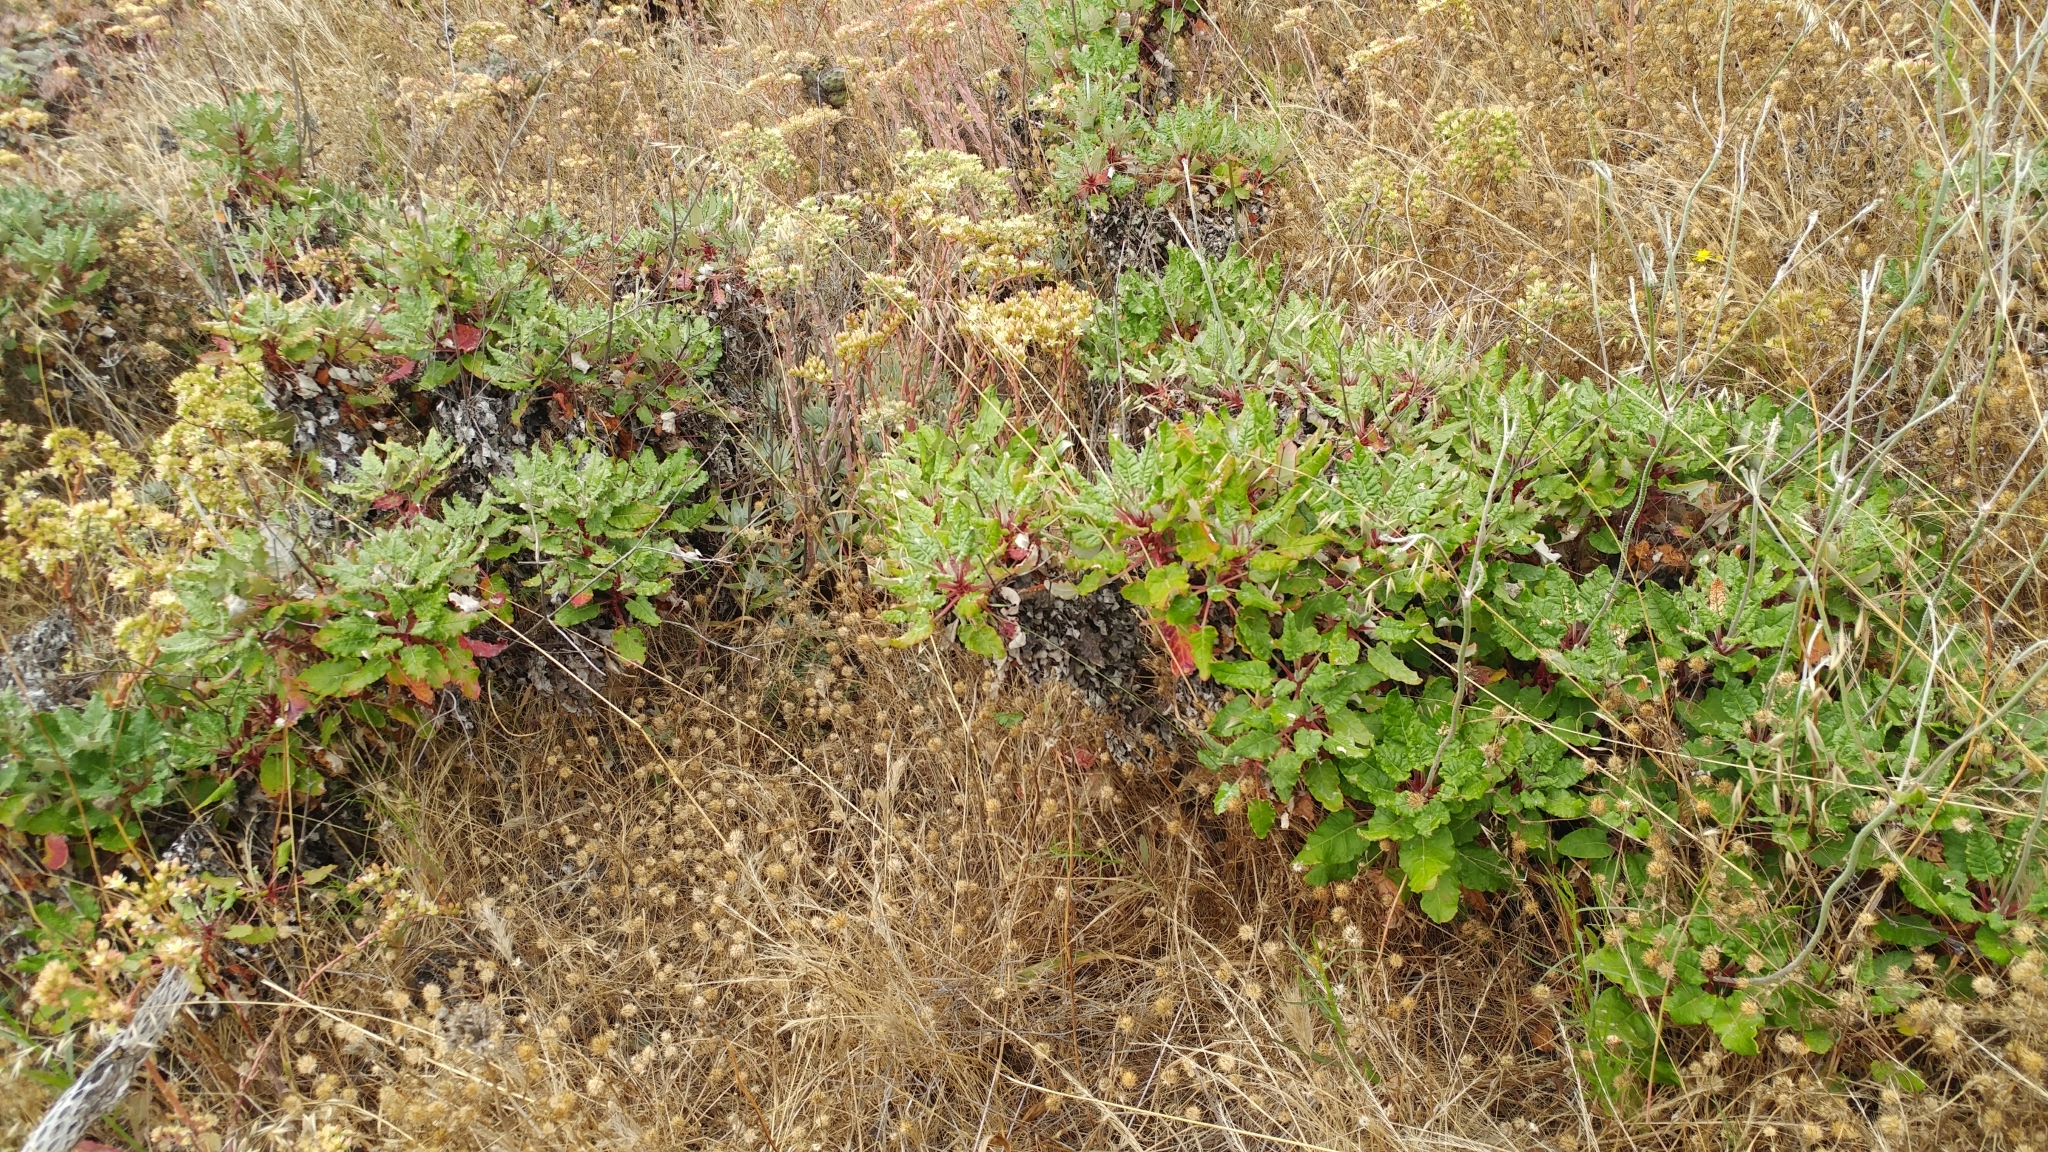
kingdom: Plantae
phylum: Tracheophyta
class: Magnoliopsida
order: Caryophyllales
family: Polygonaceae
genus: Eriogonum
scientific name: Eriogonum grande
